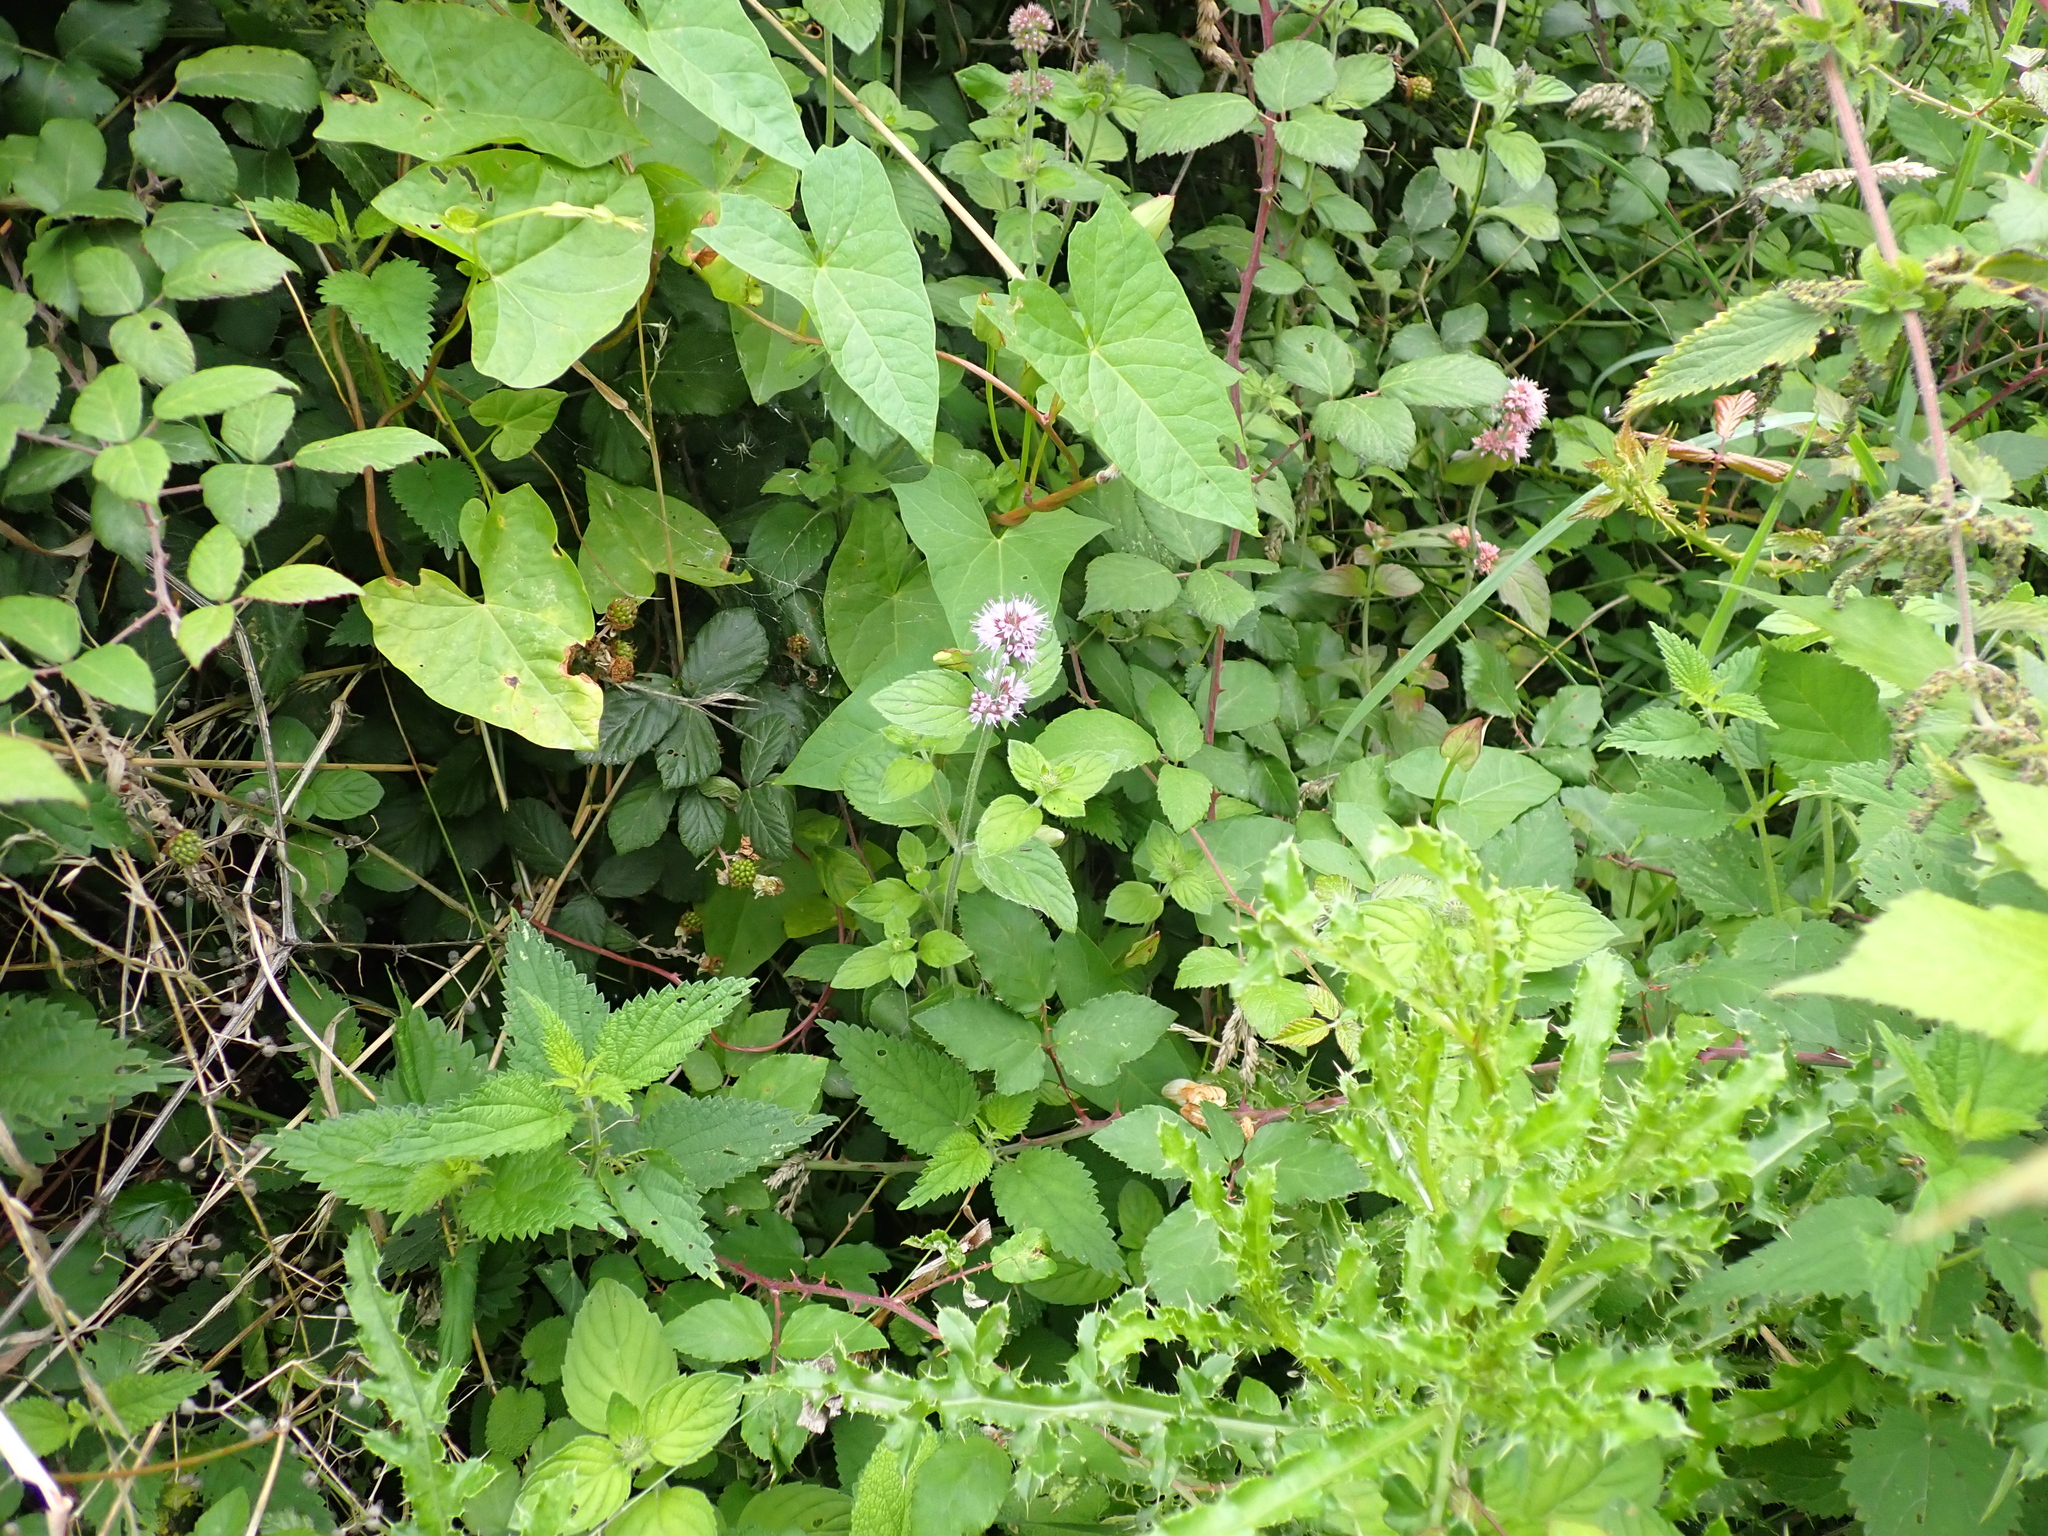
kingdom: Plantae
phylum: Tracheophyta
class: Magnoliopsida
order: Lamiales
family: Lamiaceae
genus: Mentha
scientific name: Mentha aquatica
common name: Water mint
